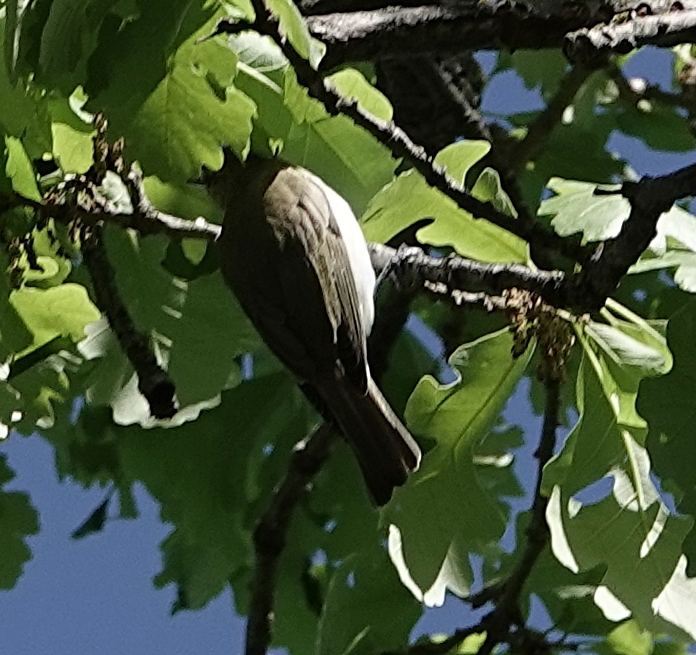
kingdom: Animalia
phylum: Chordata
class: Aves
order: Passeriformes
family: Vireonidae
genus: Vireo
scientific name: Vireo olivaceus
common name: Red-eyed vireo
